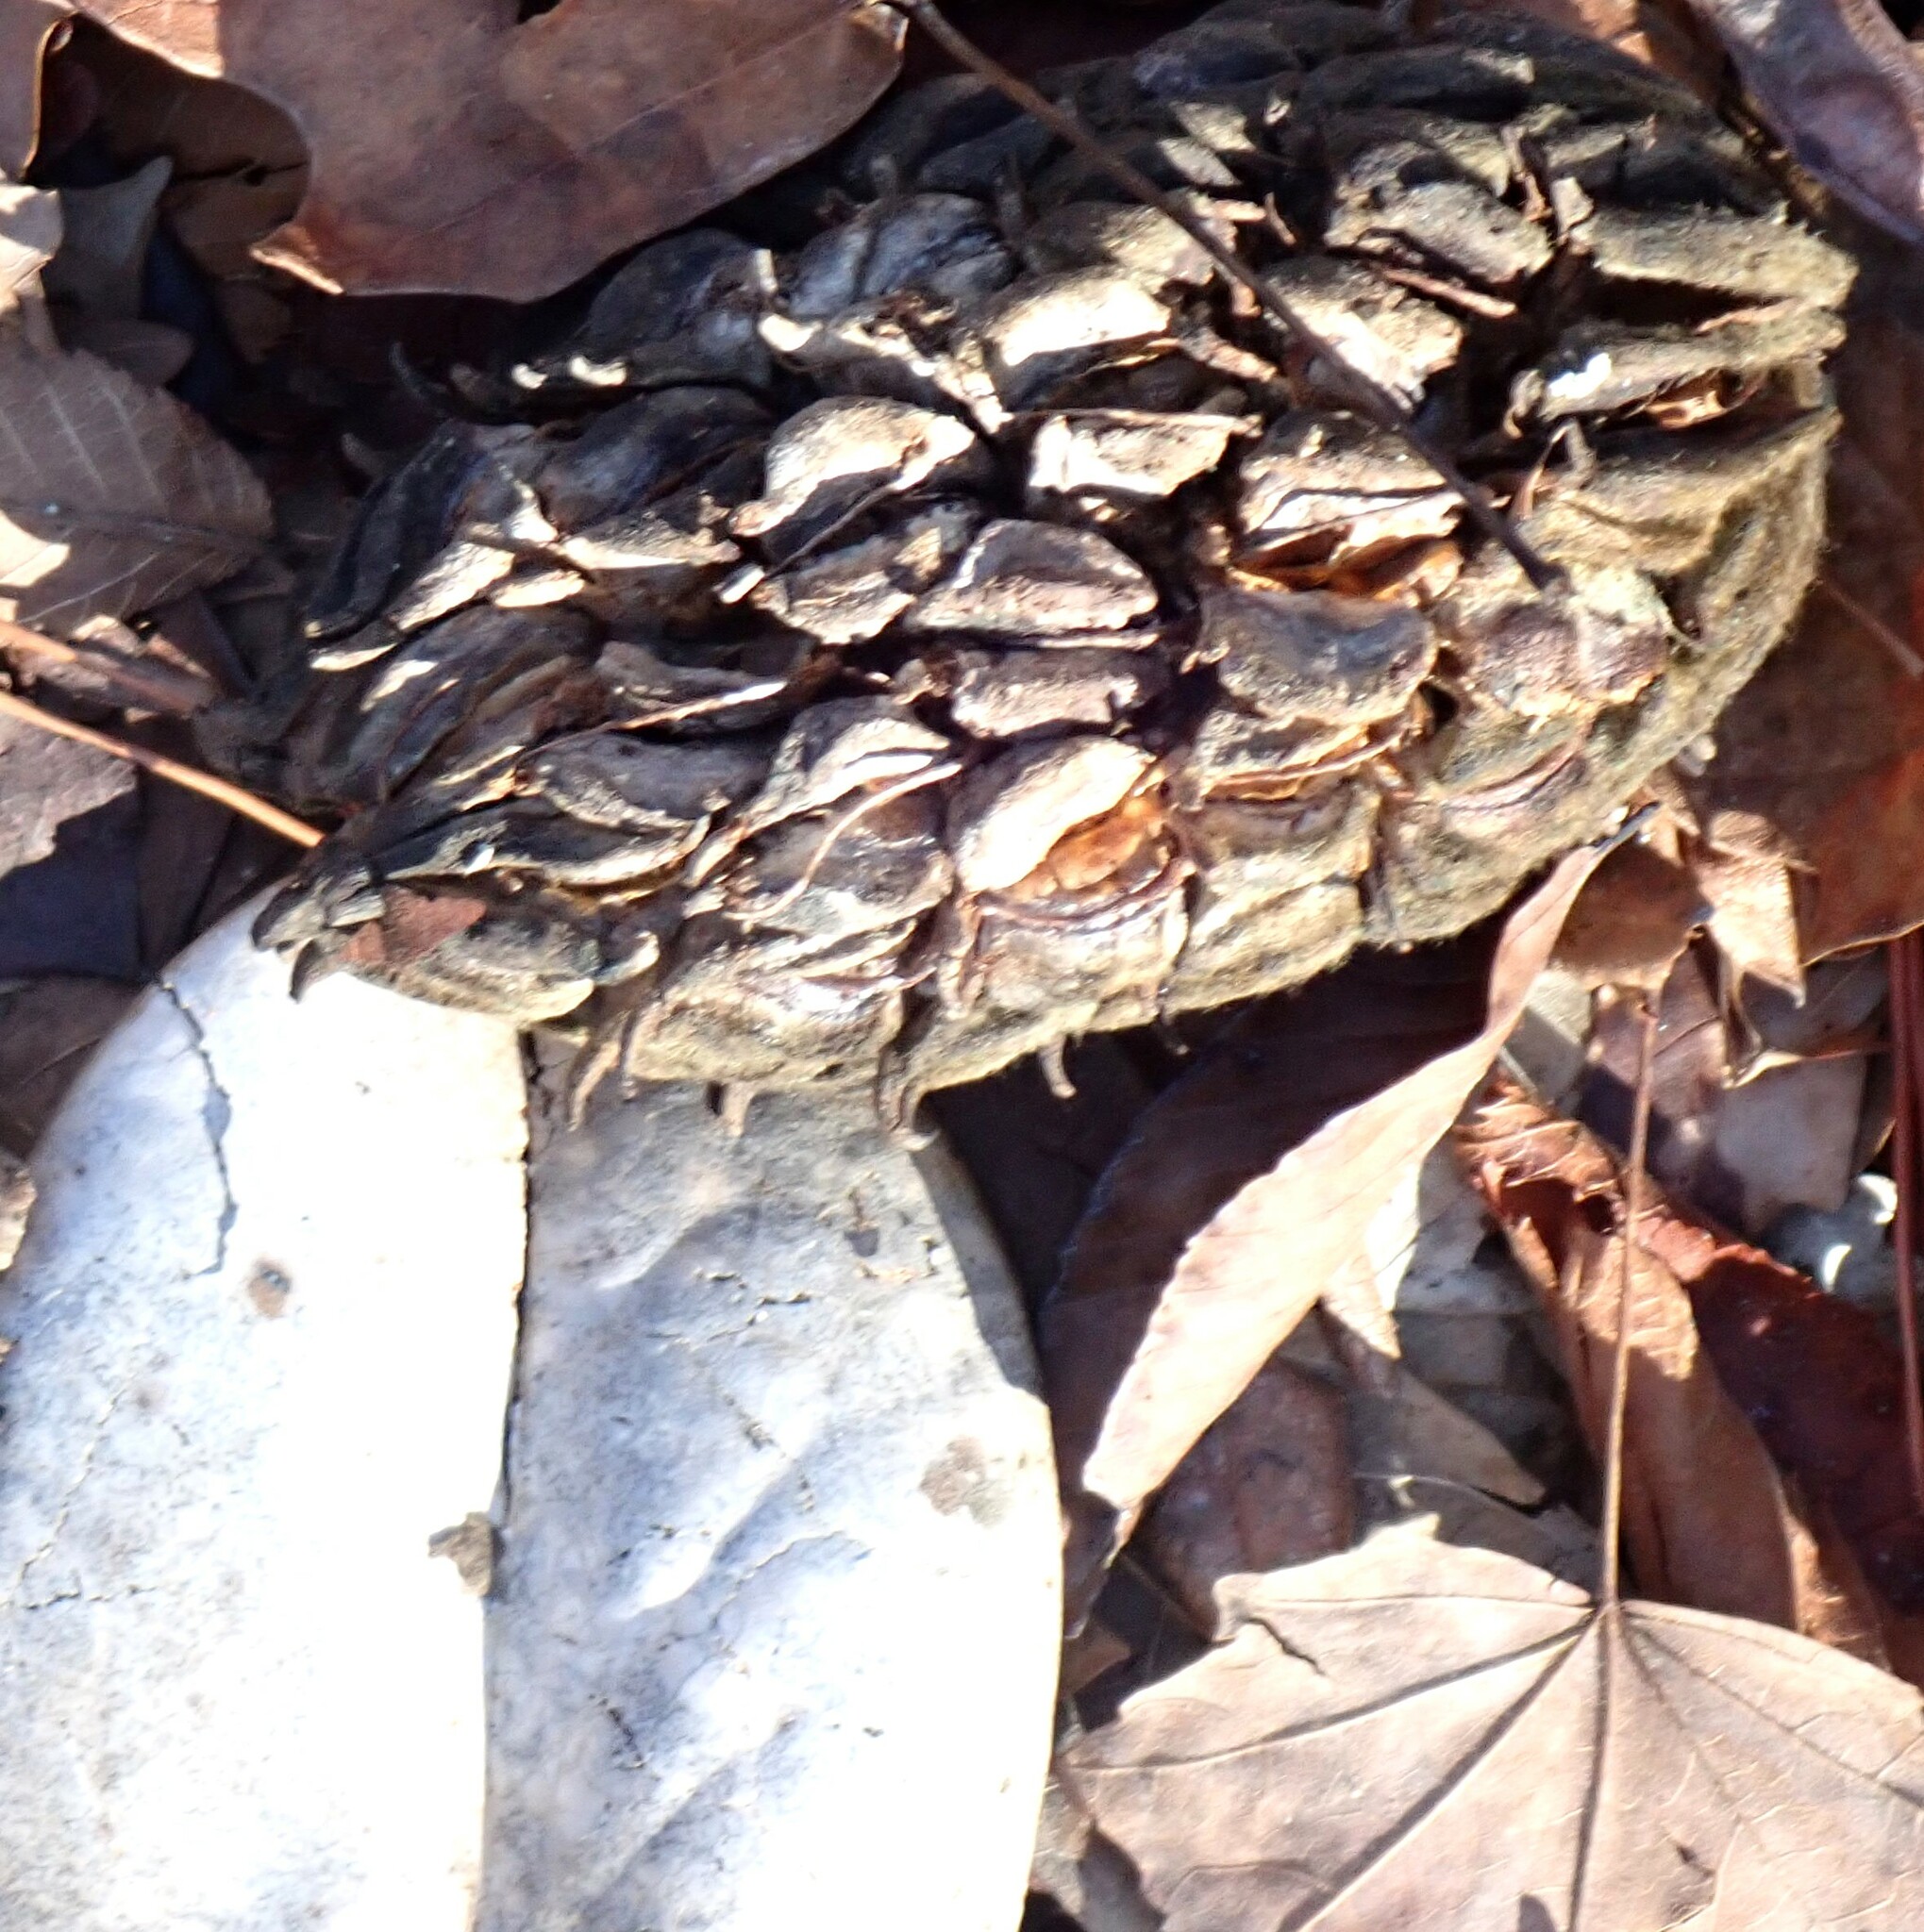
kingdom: Plantae
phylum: Tracheophyta
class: Magnoliopsida
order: Magnoliales
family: Magnoliaceae
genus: Magnolia
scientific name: Magnolia grandiflora
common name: Southern magnolia
